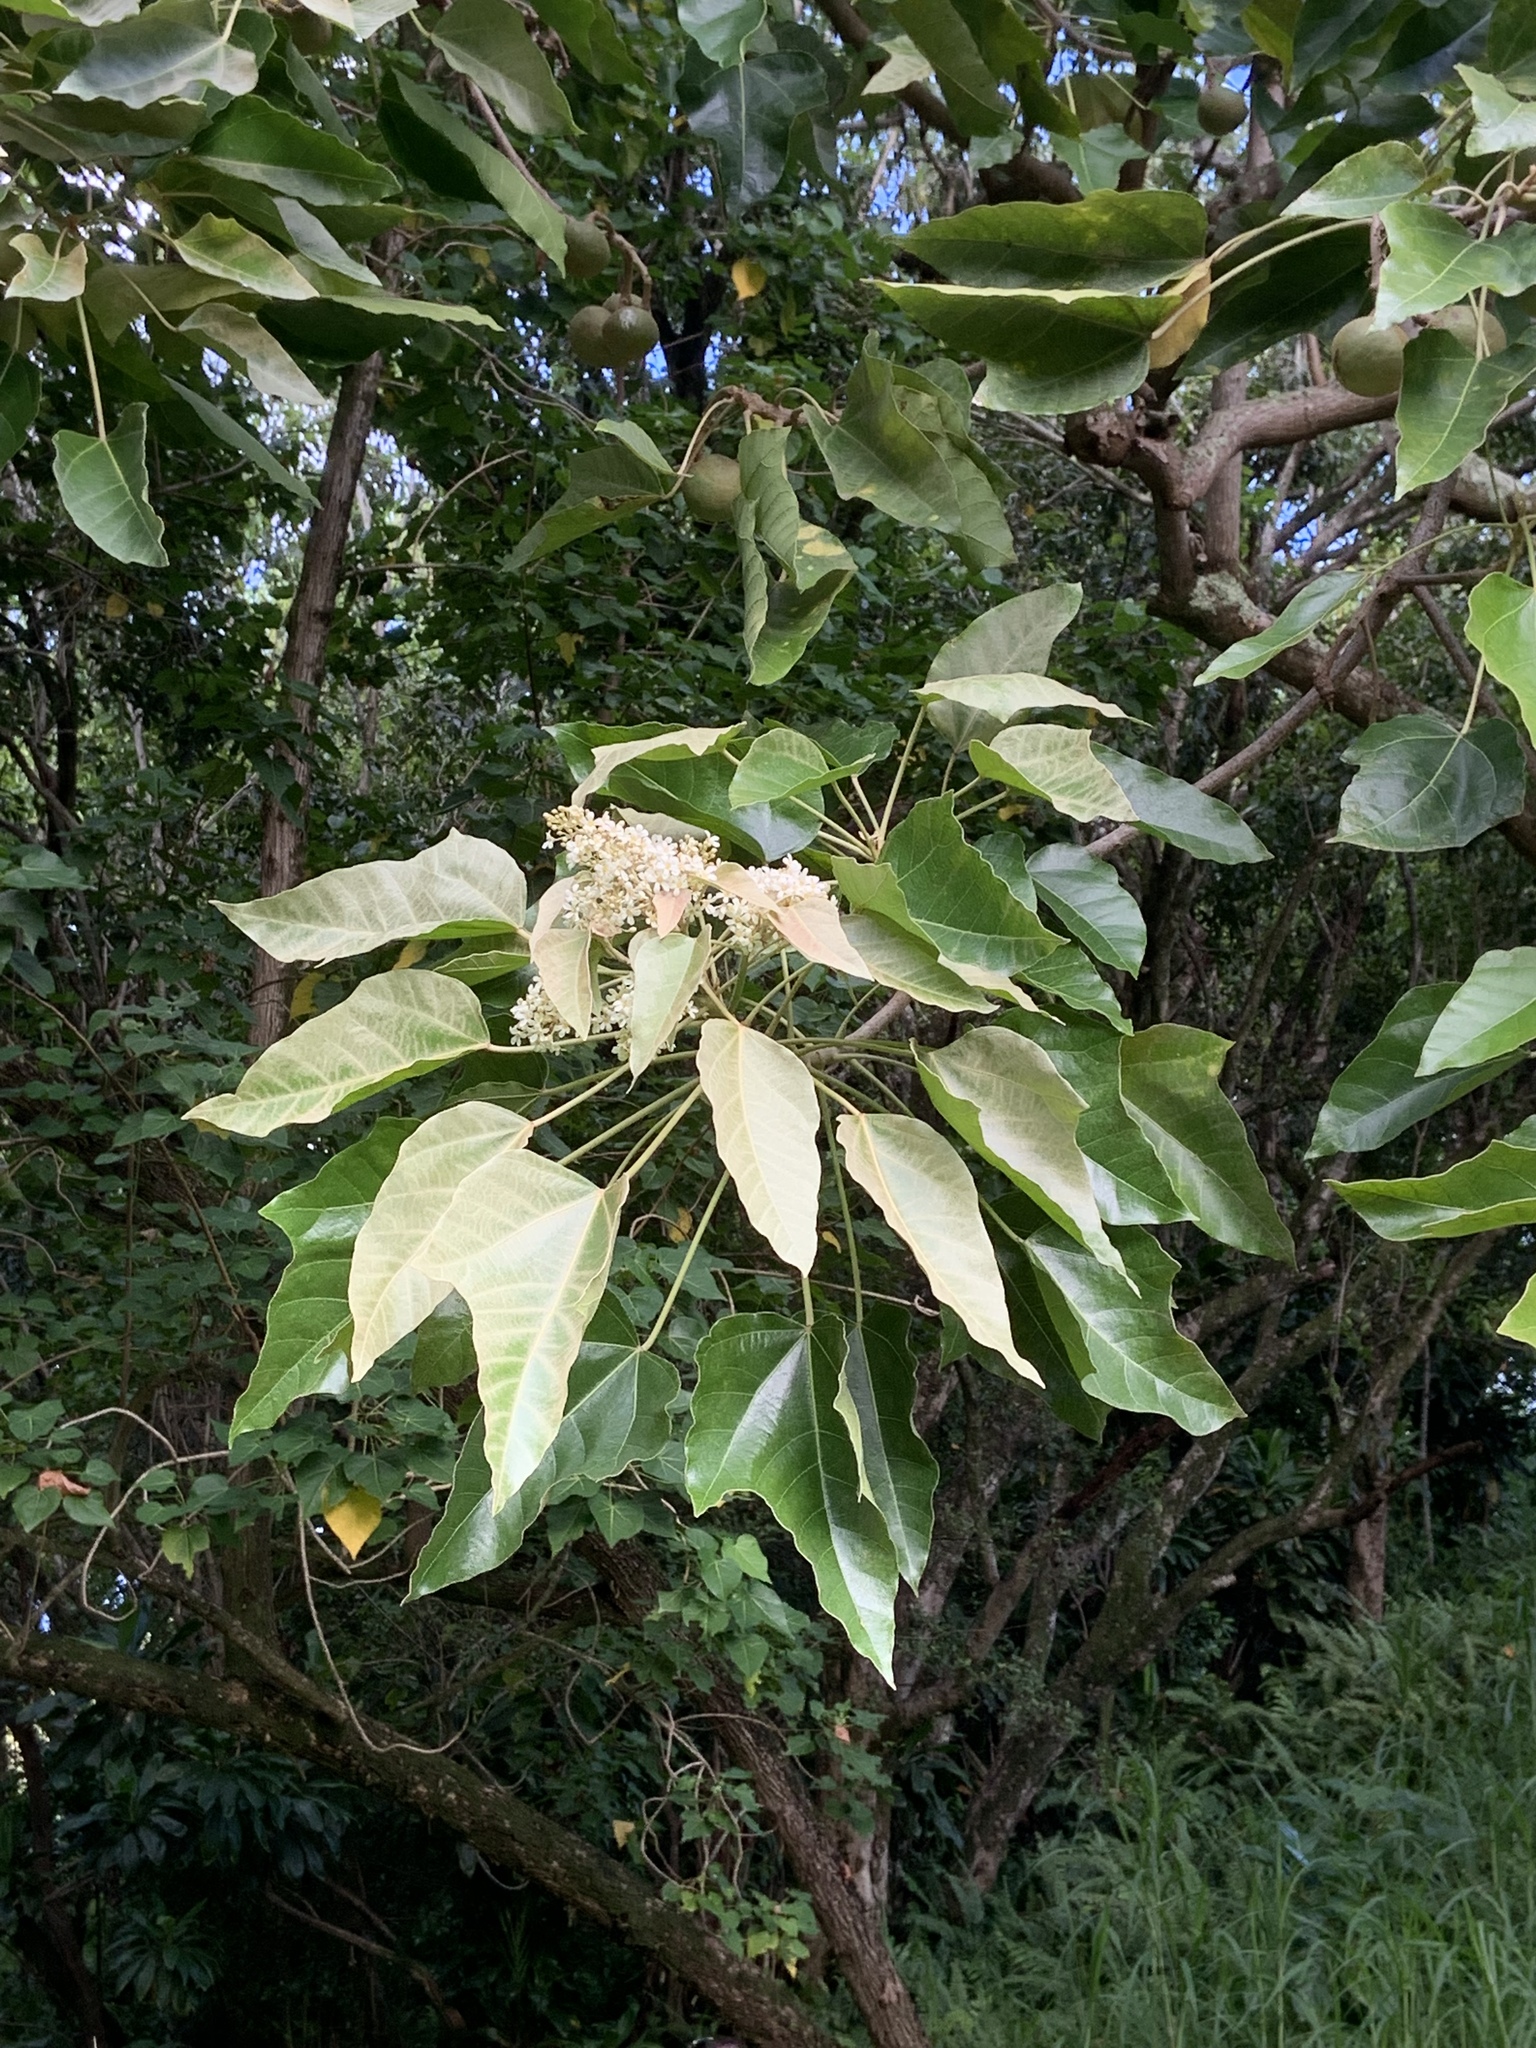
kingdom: Plantae
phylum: Tracheophyta
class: Magnoliopsida
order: Malpighiales
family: Euphorbiaceae
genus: Aleurites
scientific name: Aleurites moluccanus
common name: Candlenut tree
